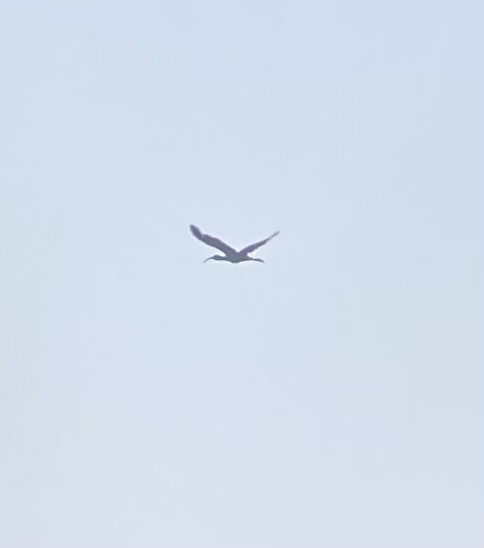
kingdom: Animalia
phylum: Chordata
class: Aves
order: Pelecaniformes
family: Threskiornithidae
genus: Plegadis
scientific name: Plegadis chihi
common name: White-faced ibis
